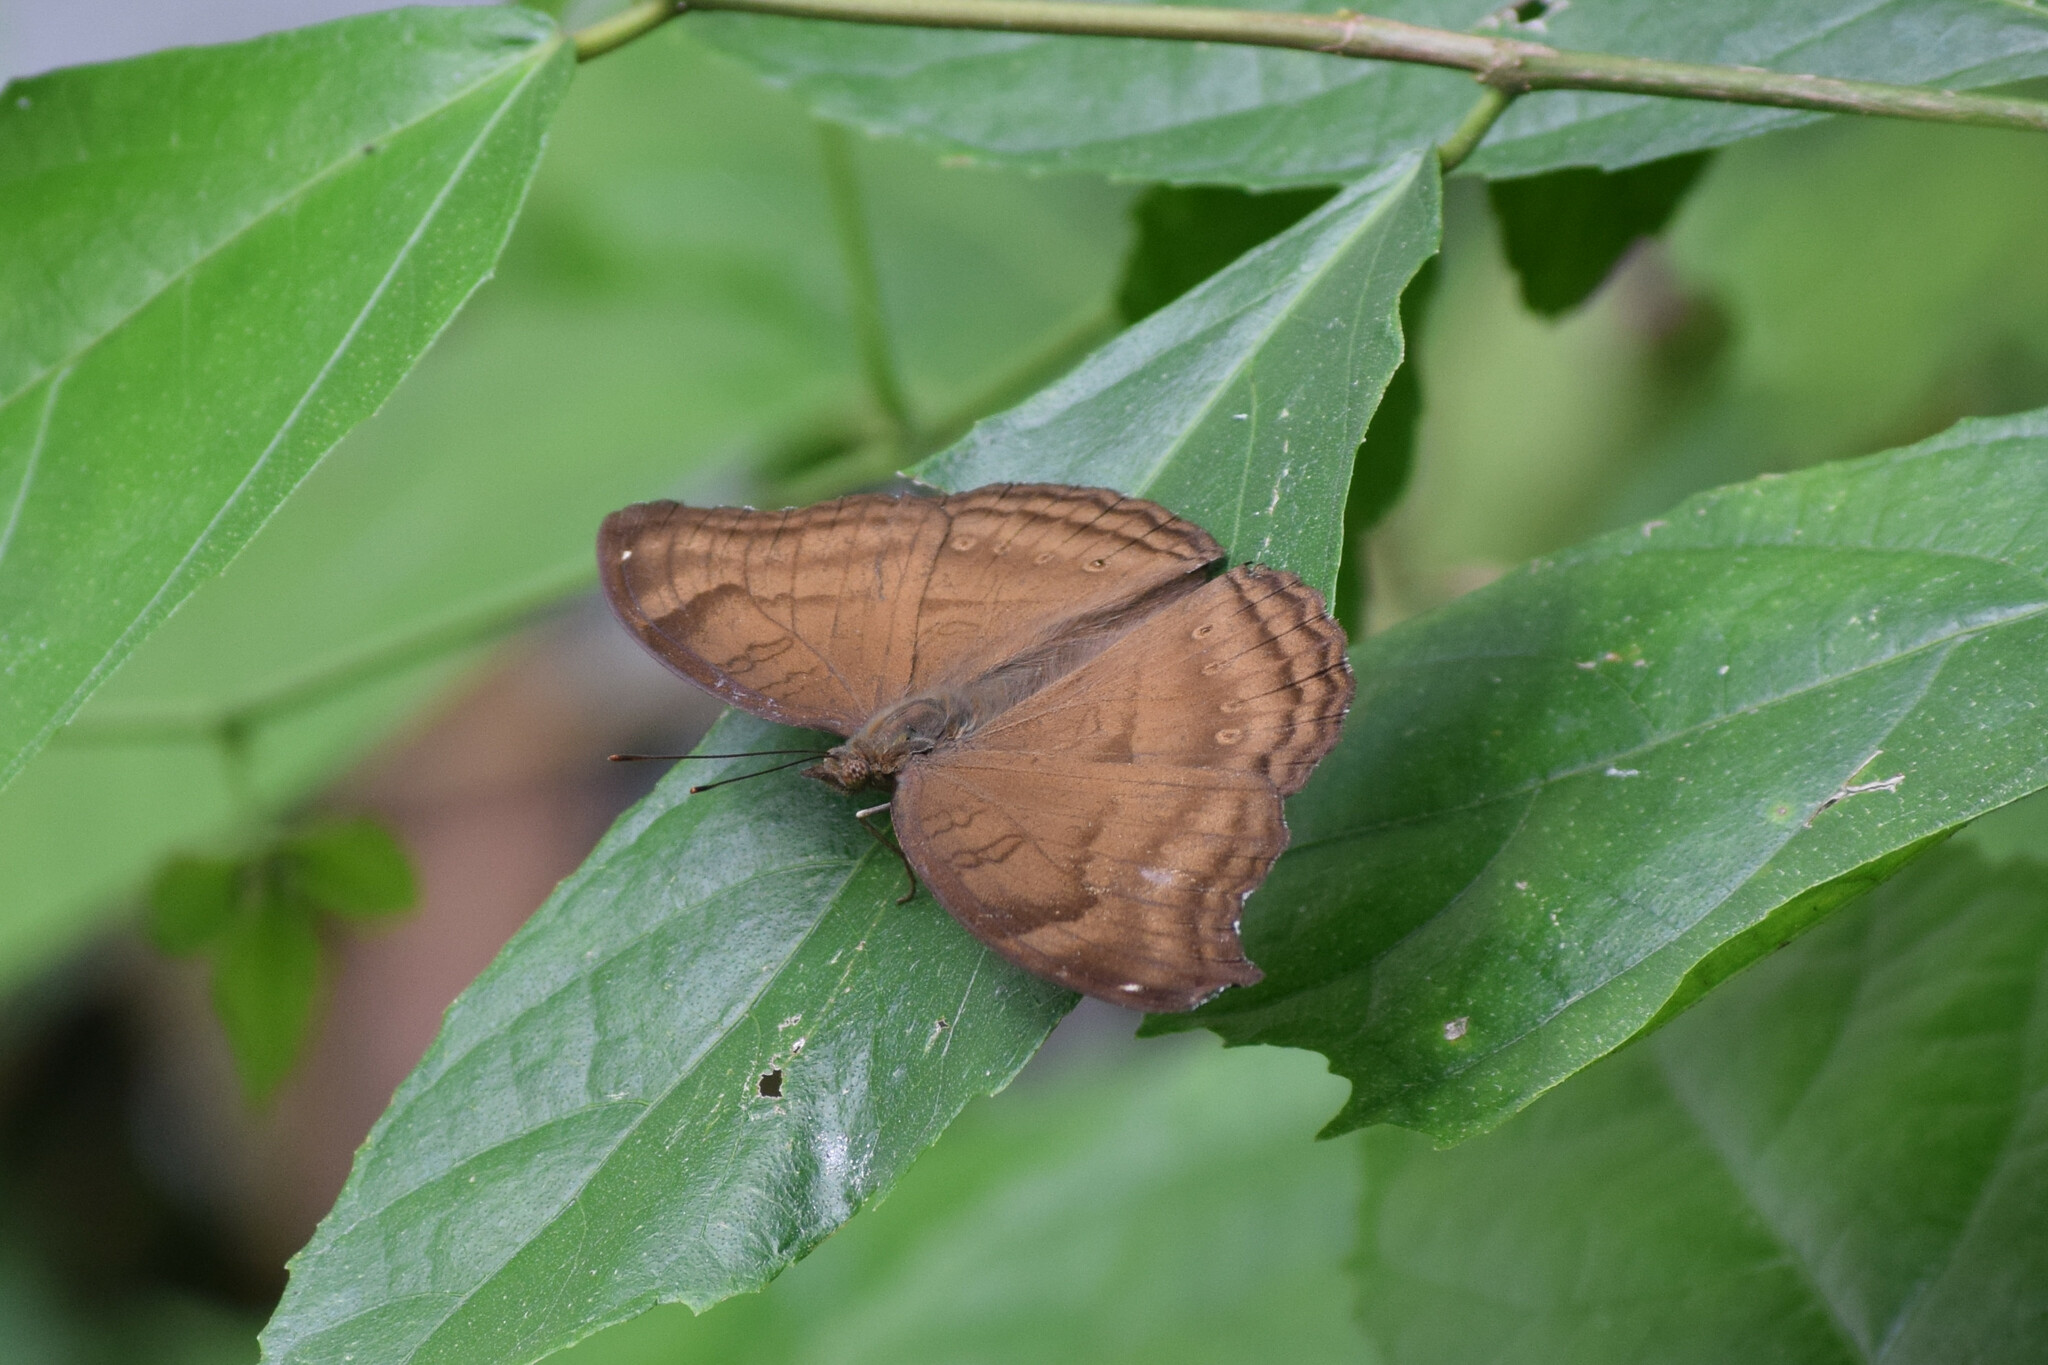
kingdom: Animalia
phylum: Arthropoda
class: Insecta
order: Lepidoptera
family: Nymphalidae
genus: Junonia
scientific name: Junonia iphita
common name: Chocolate pansy
